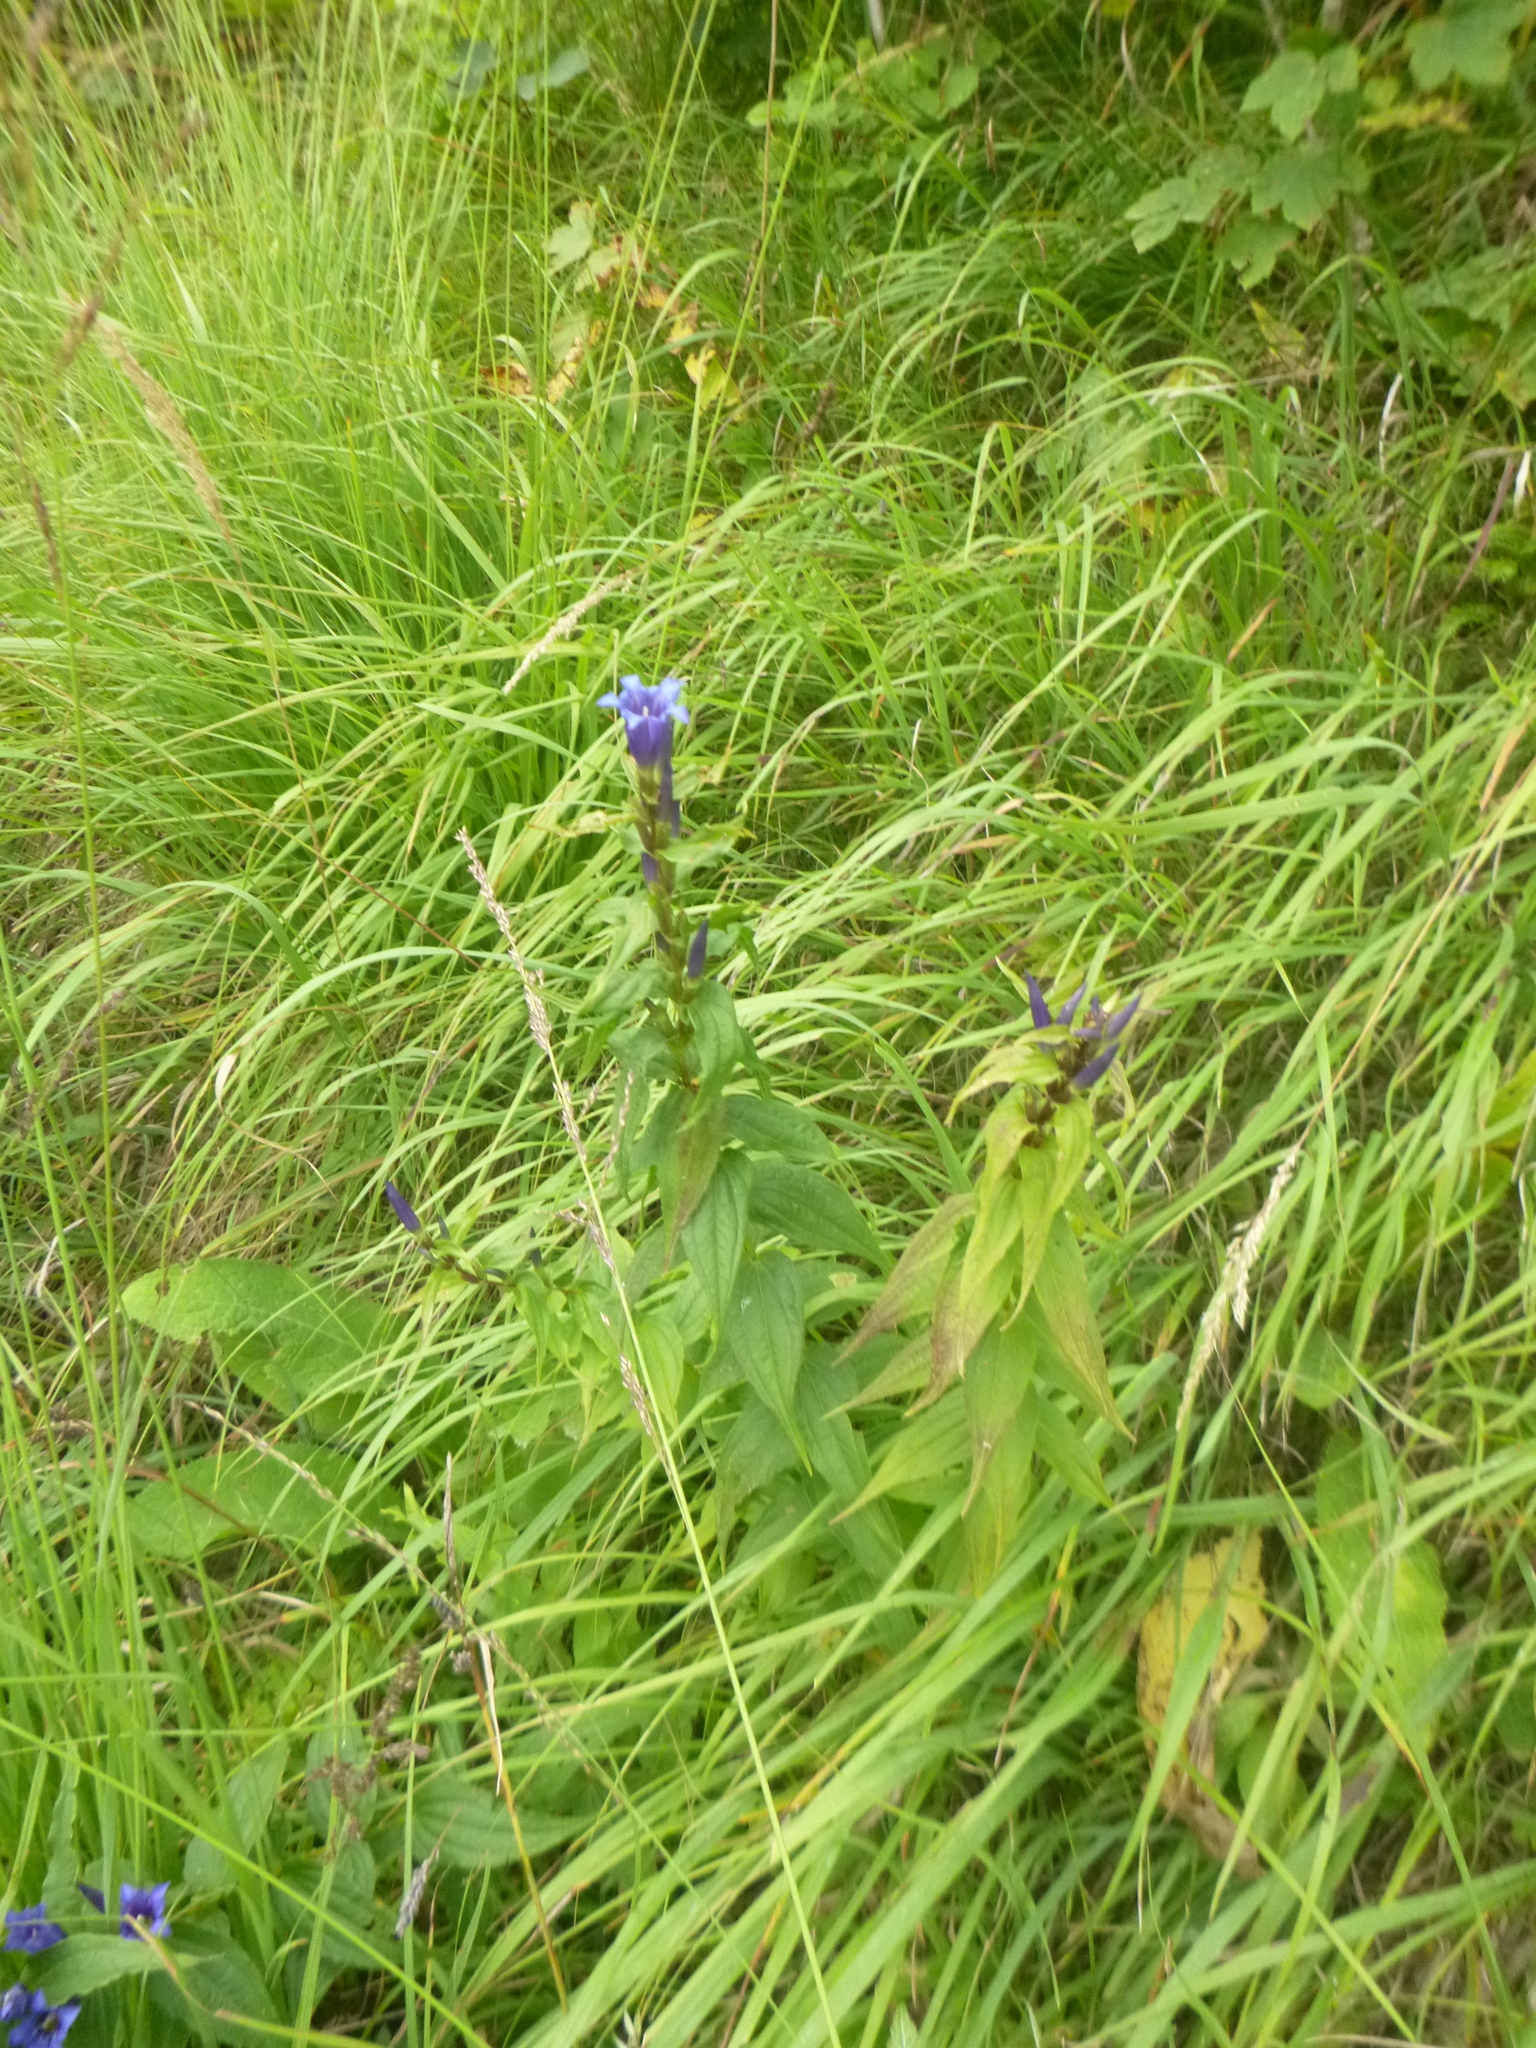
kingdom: Plantae
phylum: Tracheophyta
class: Magnoliopsida
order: Gentianales
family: Gentianaceae
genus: Gentiana
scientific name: Gentiana asclepiadea
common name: Willow gentian
